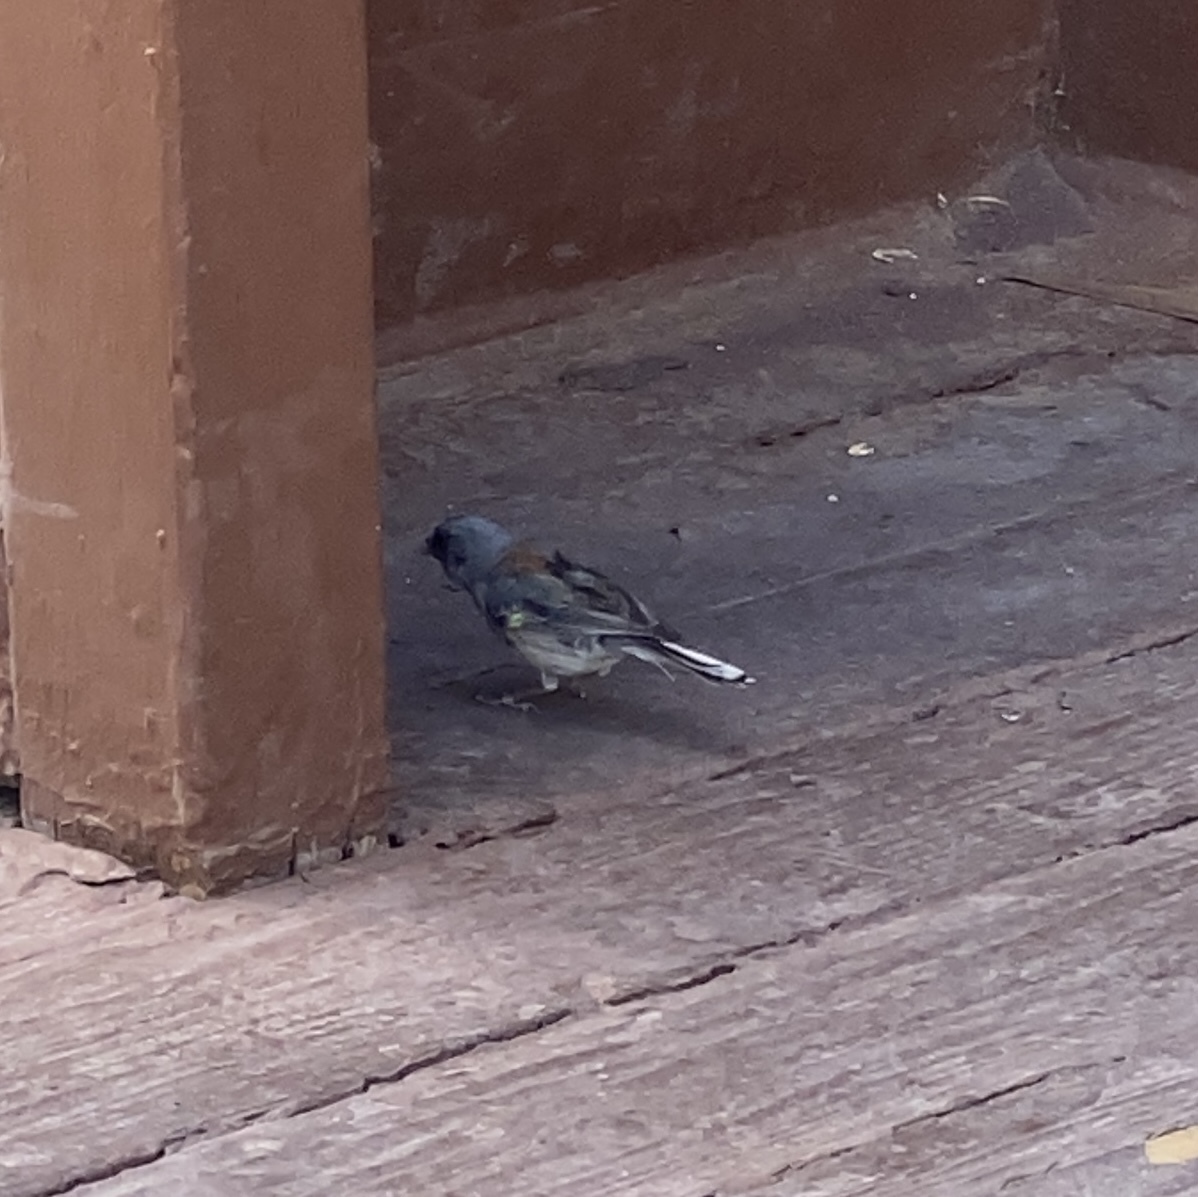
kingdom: Animalia
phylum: Chordata
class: Aves
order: Passeriformes
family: Passerellidae
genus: Junco
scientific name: Junco hyemalis
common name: Dark-eyed junco
